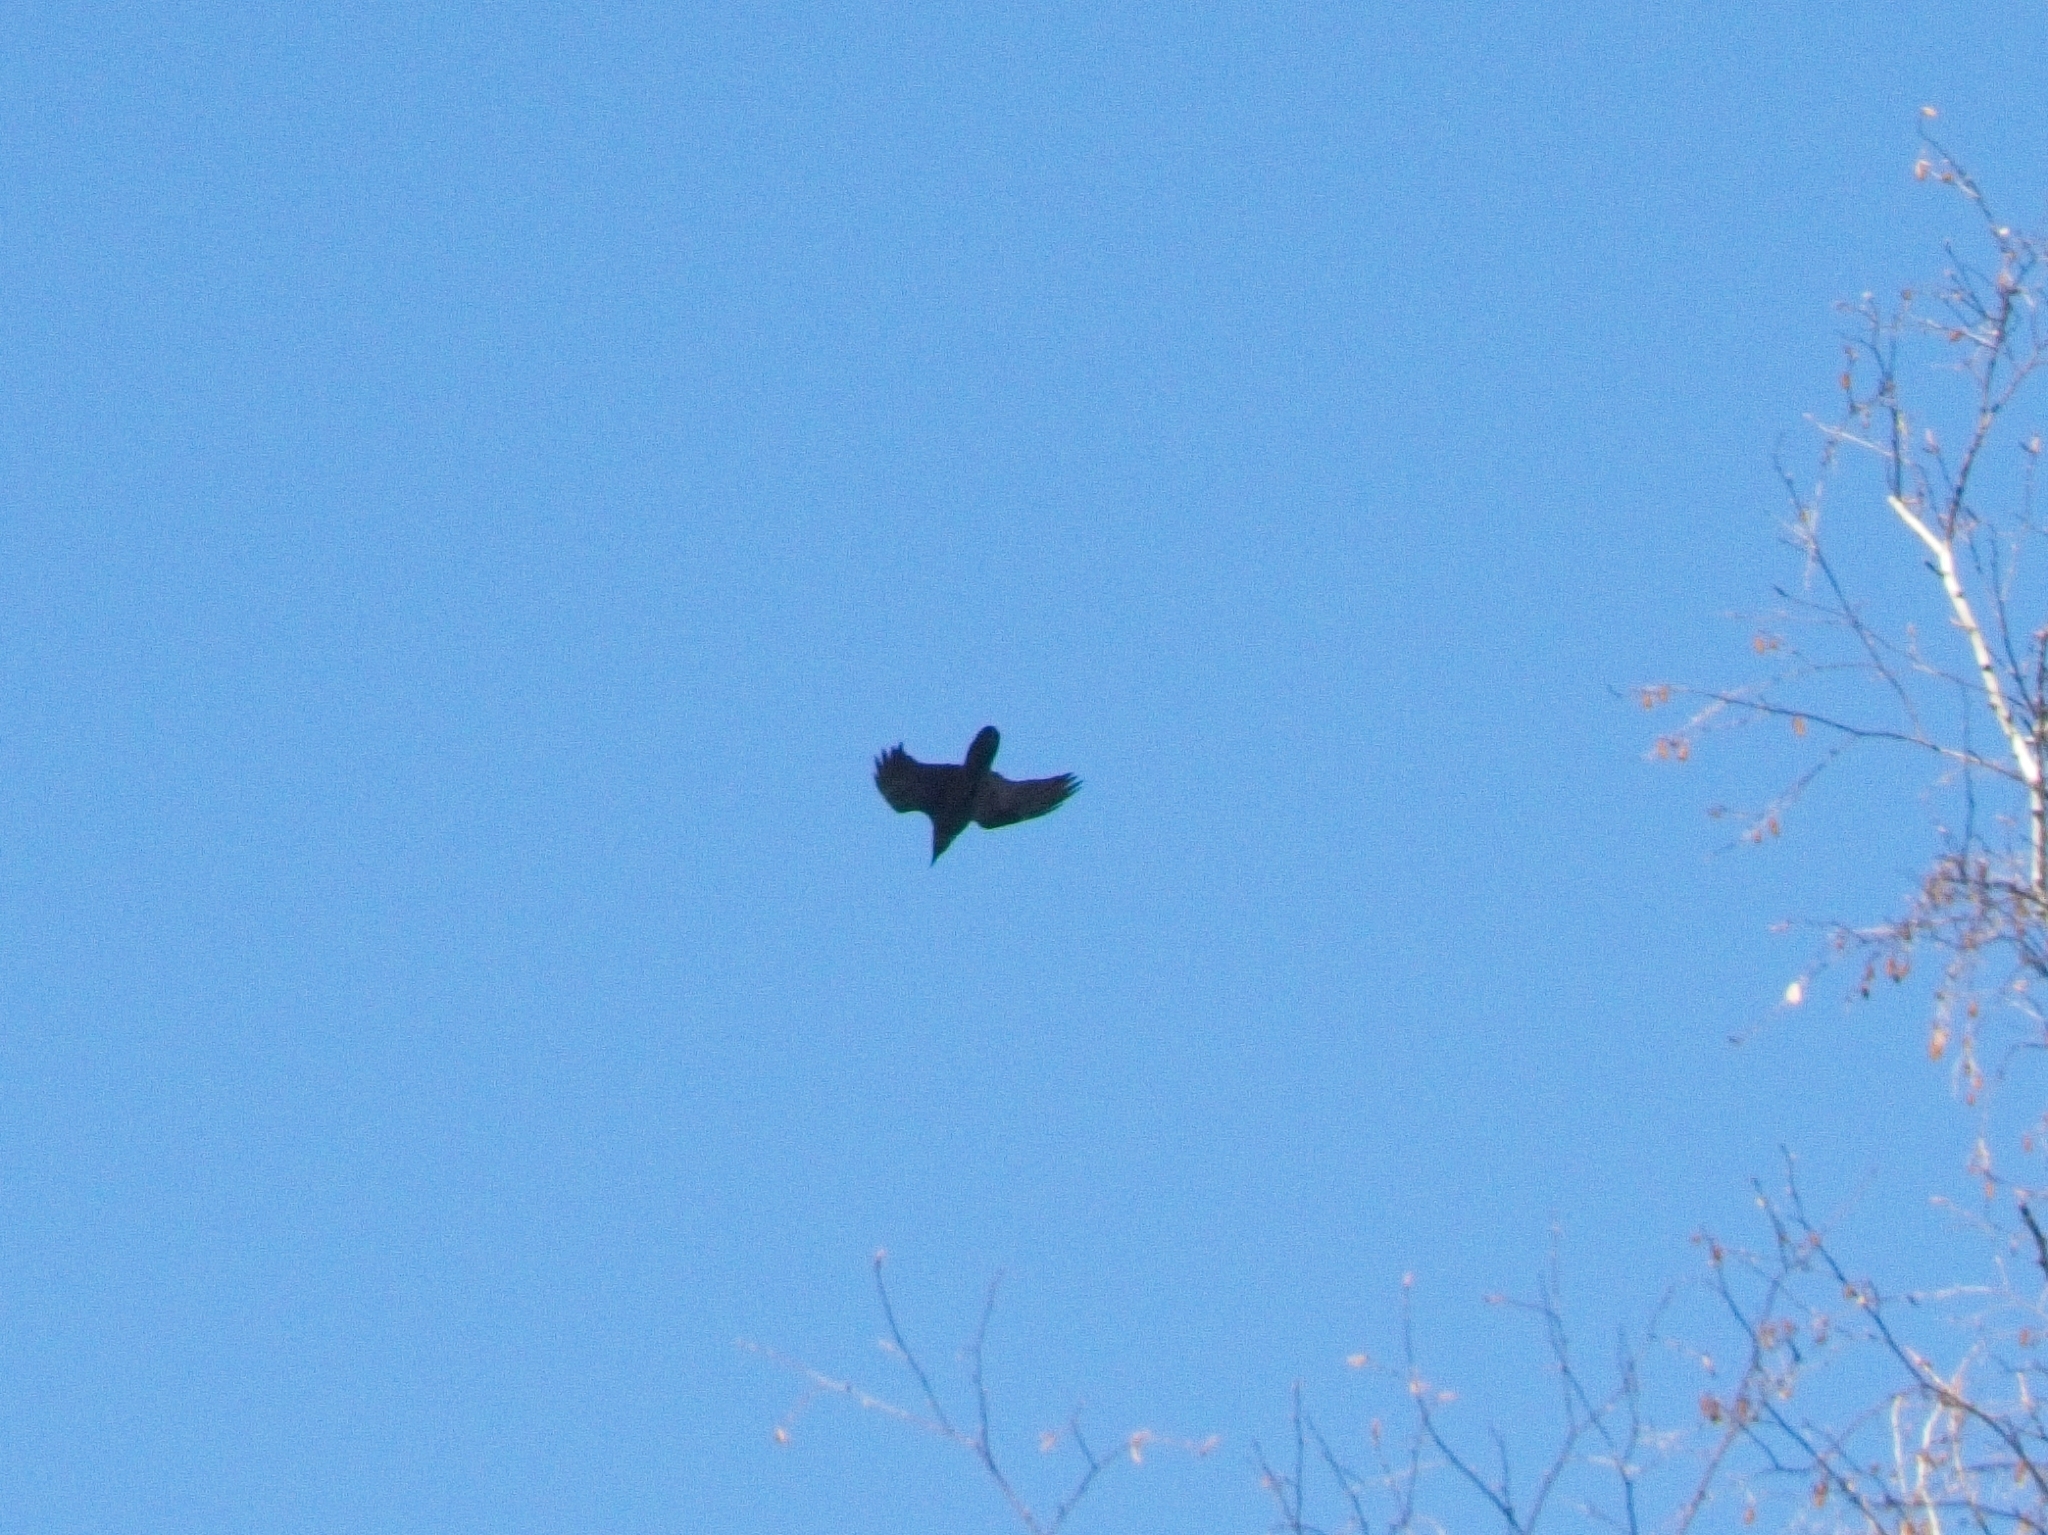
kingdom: Animalia
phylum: Chordata
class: Aves
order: Passeriformes
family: Corvidae
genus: Corvus
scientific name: Corvus corax
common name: Common raven
